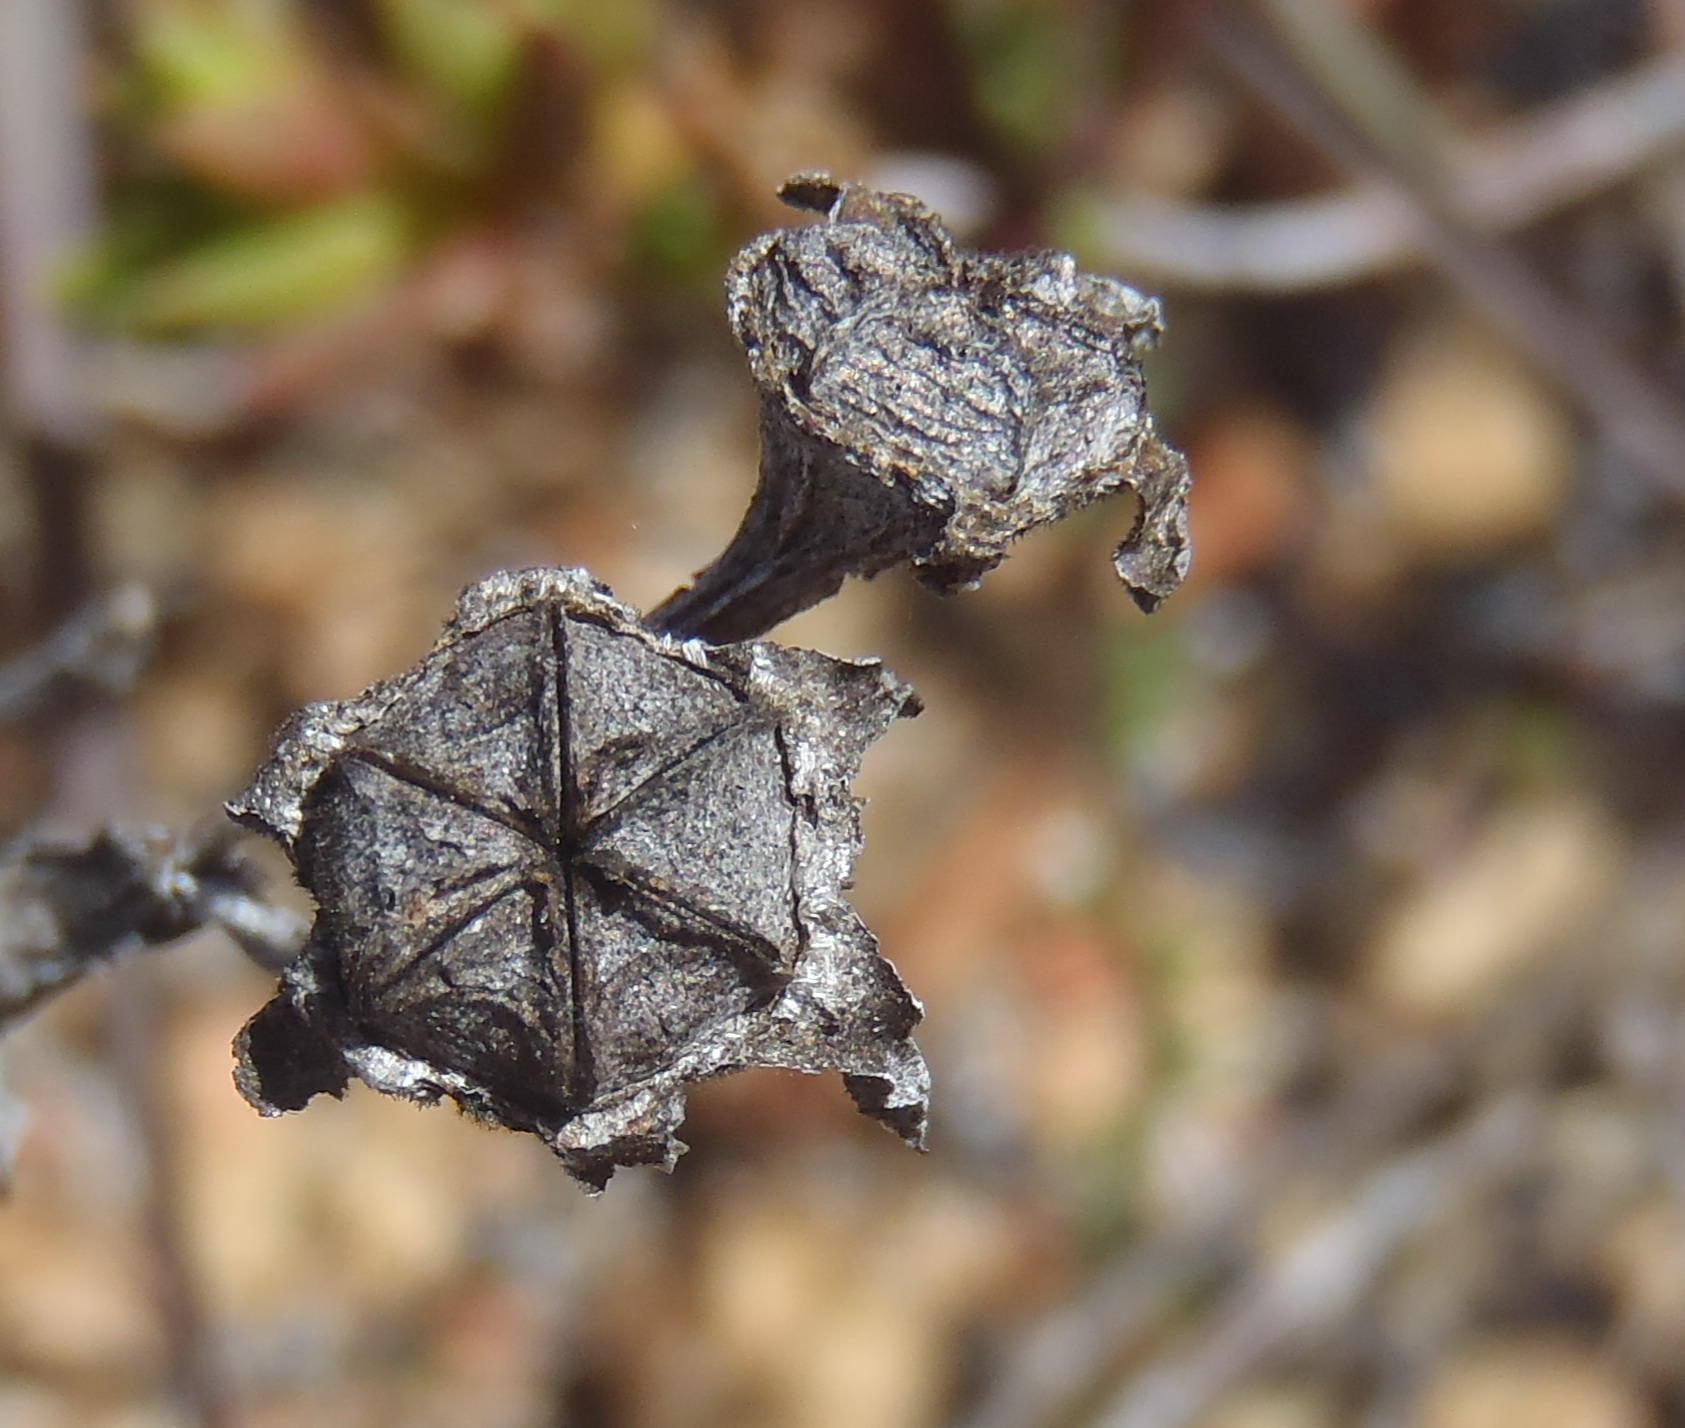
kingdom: Plantae
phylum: Tracheophyta
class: Magnoliopsida
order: Caryophyllales
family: Aizoaceae
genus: Ruschia
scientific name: Ruschia congesta
